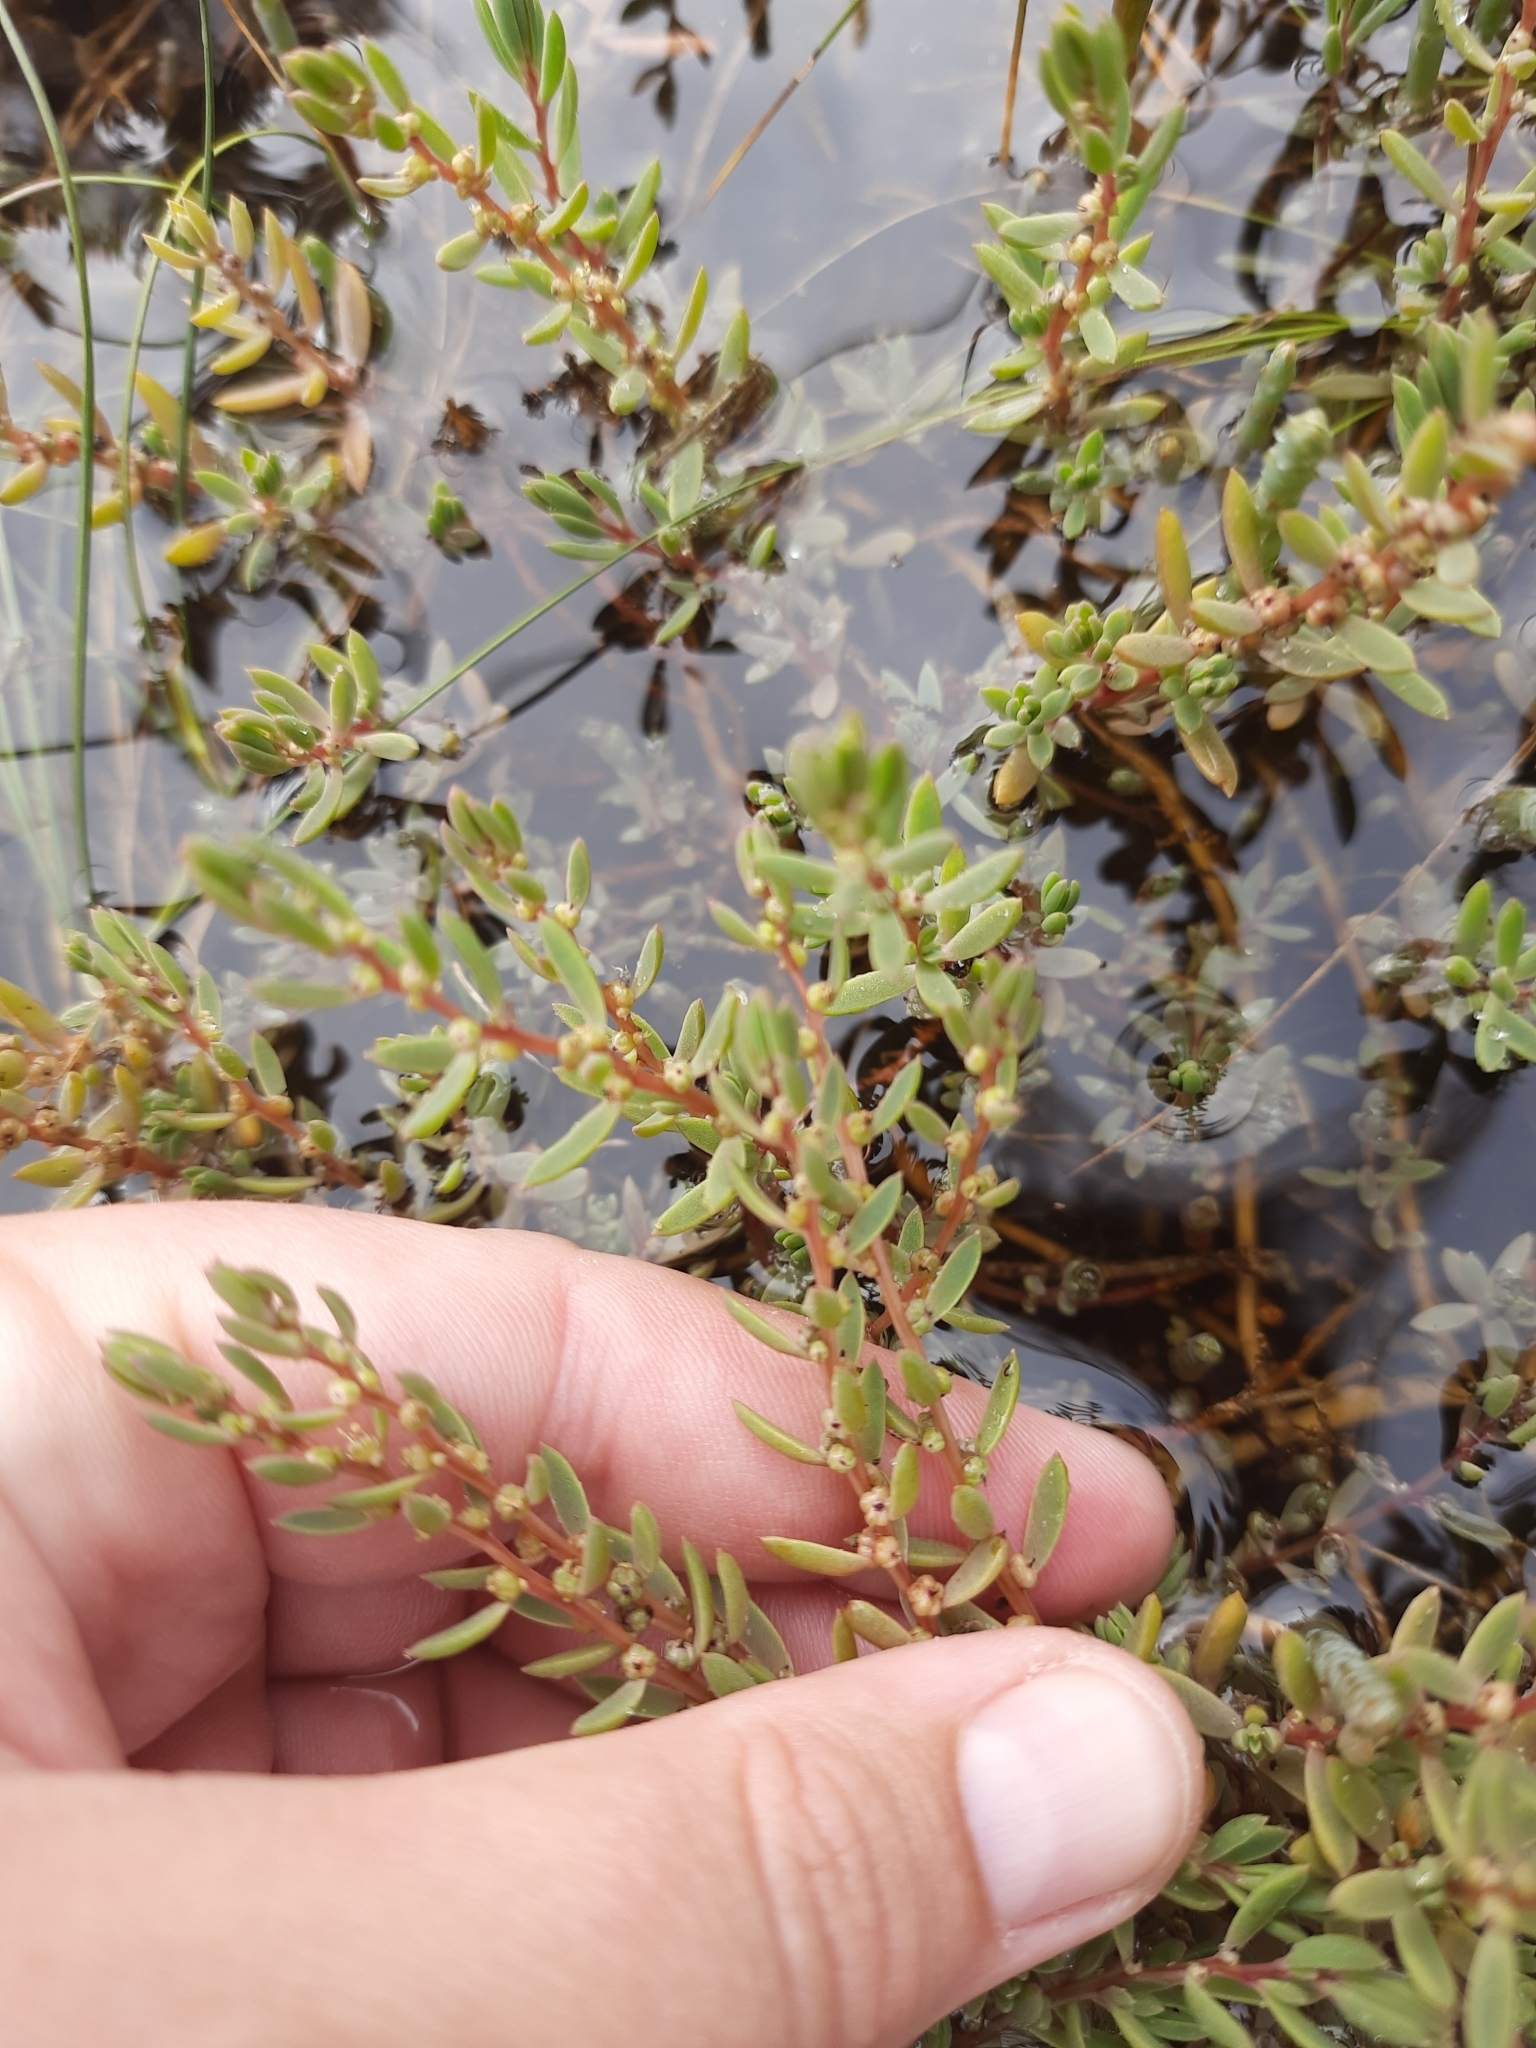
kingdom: Plantae
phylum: Tracheophyta
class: Magnoliopsida
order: Caryophyllales
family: Amaranthaceae
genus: Suaeda
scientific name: Suaeda novae-zelandiae
